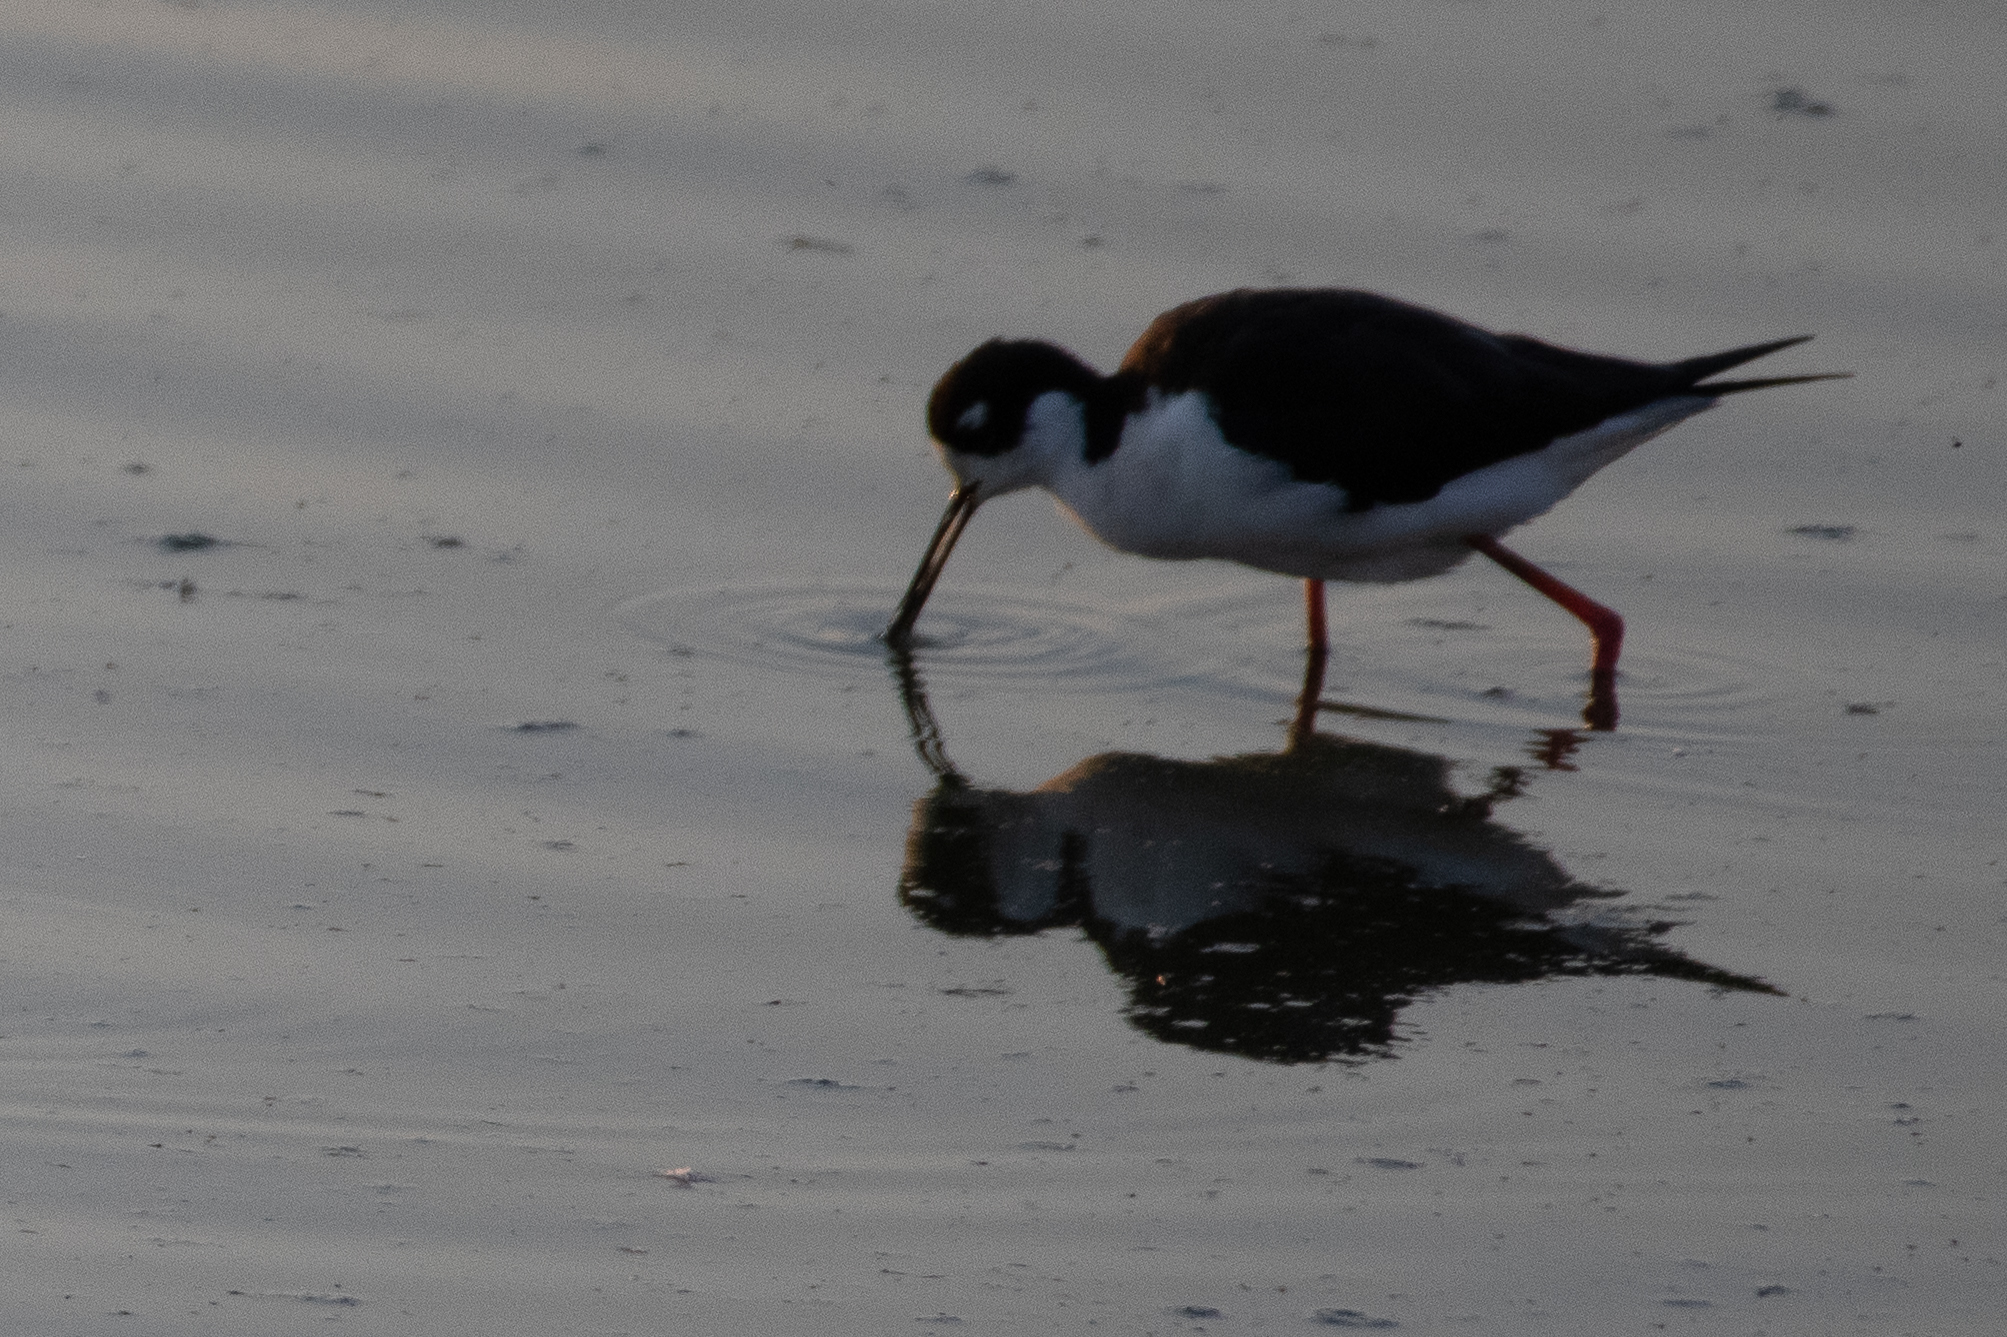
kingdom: Animalia
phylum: Chordata
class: Aves
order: Charadriiformes
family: Recurvirostridae
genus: Himantopus
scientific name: Himantopus mexicanus
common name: Black-necked stilt
